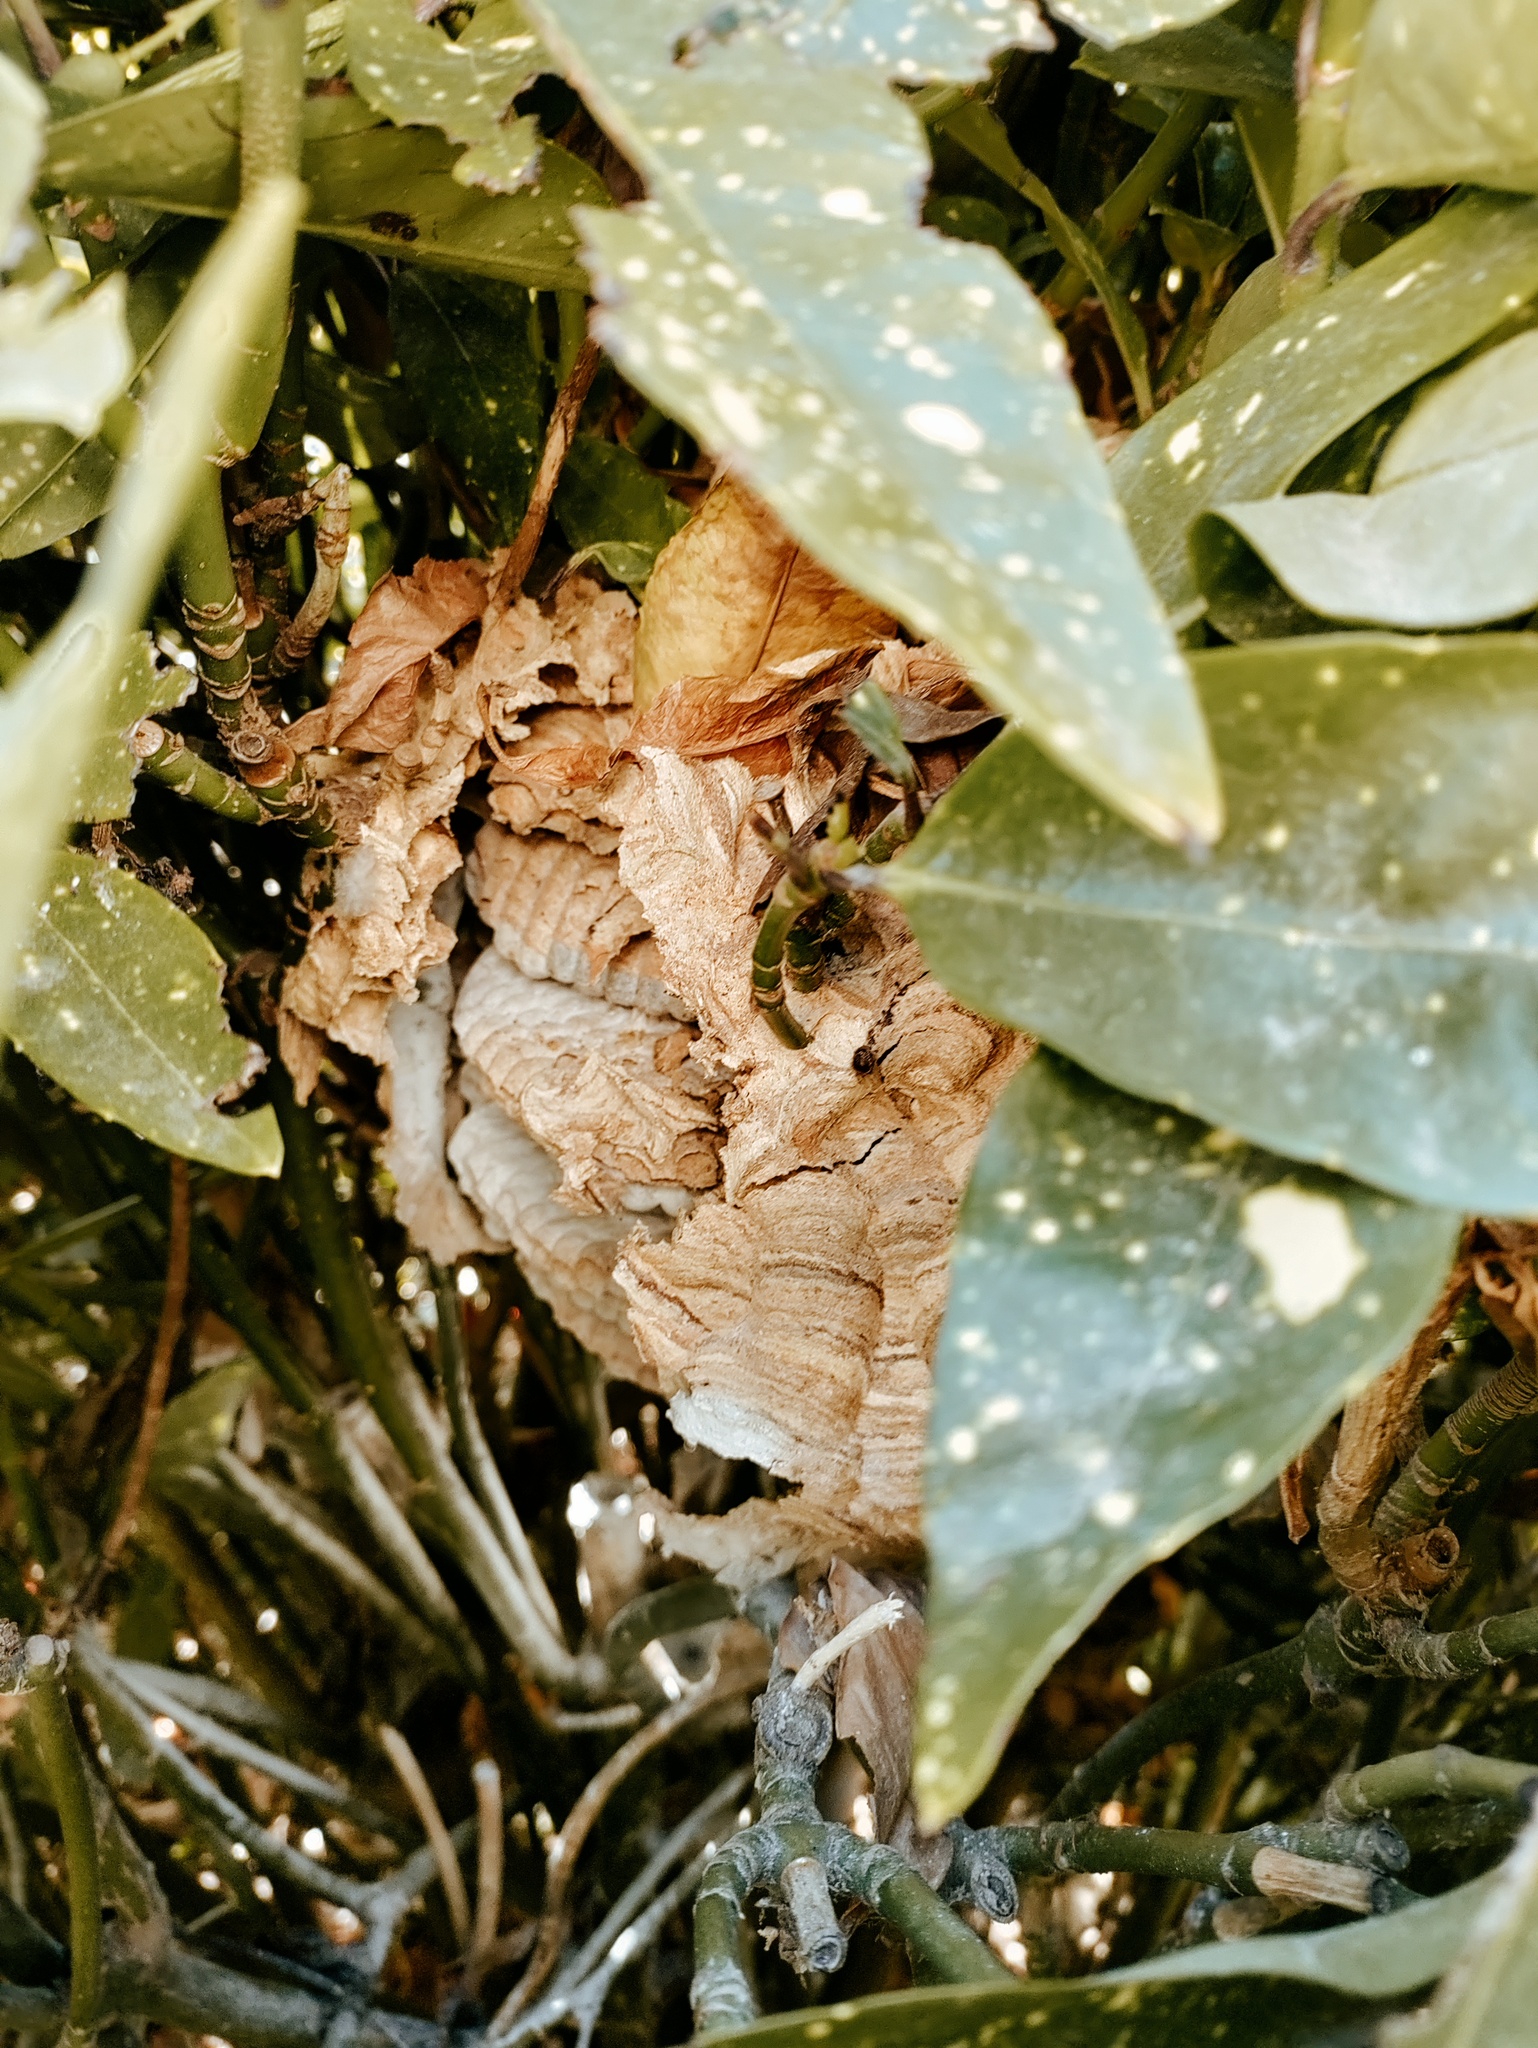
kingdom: Animalia
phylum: Arthropoda
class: Insecta
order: Hymenoptera
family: Vespidae
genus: Vespa
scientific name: Vespa velutina
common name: Asian hornet
